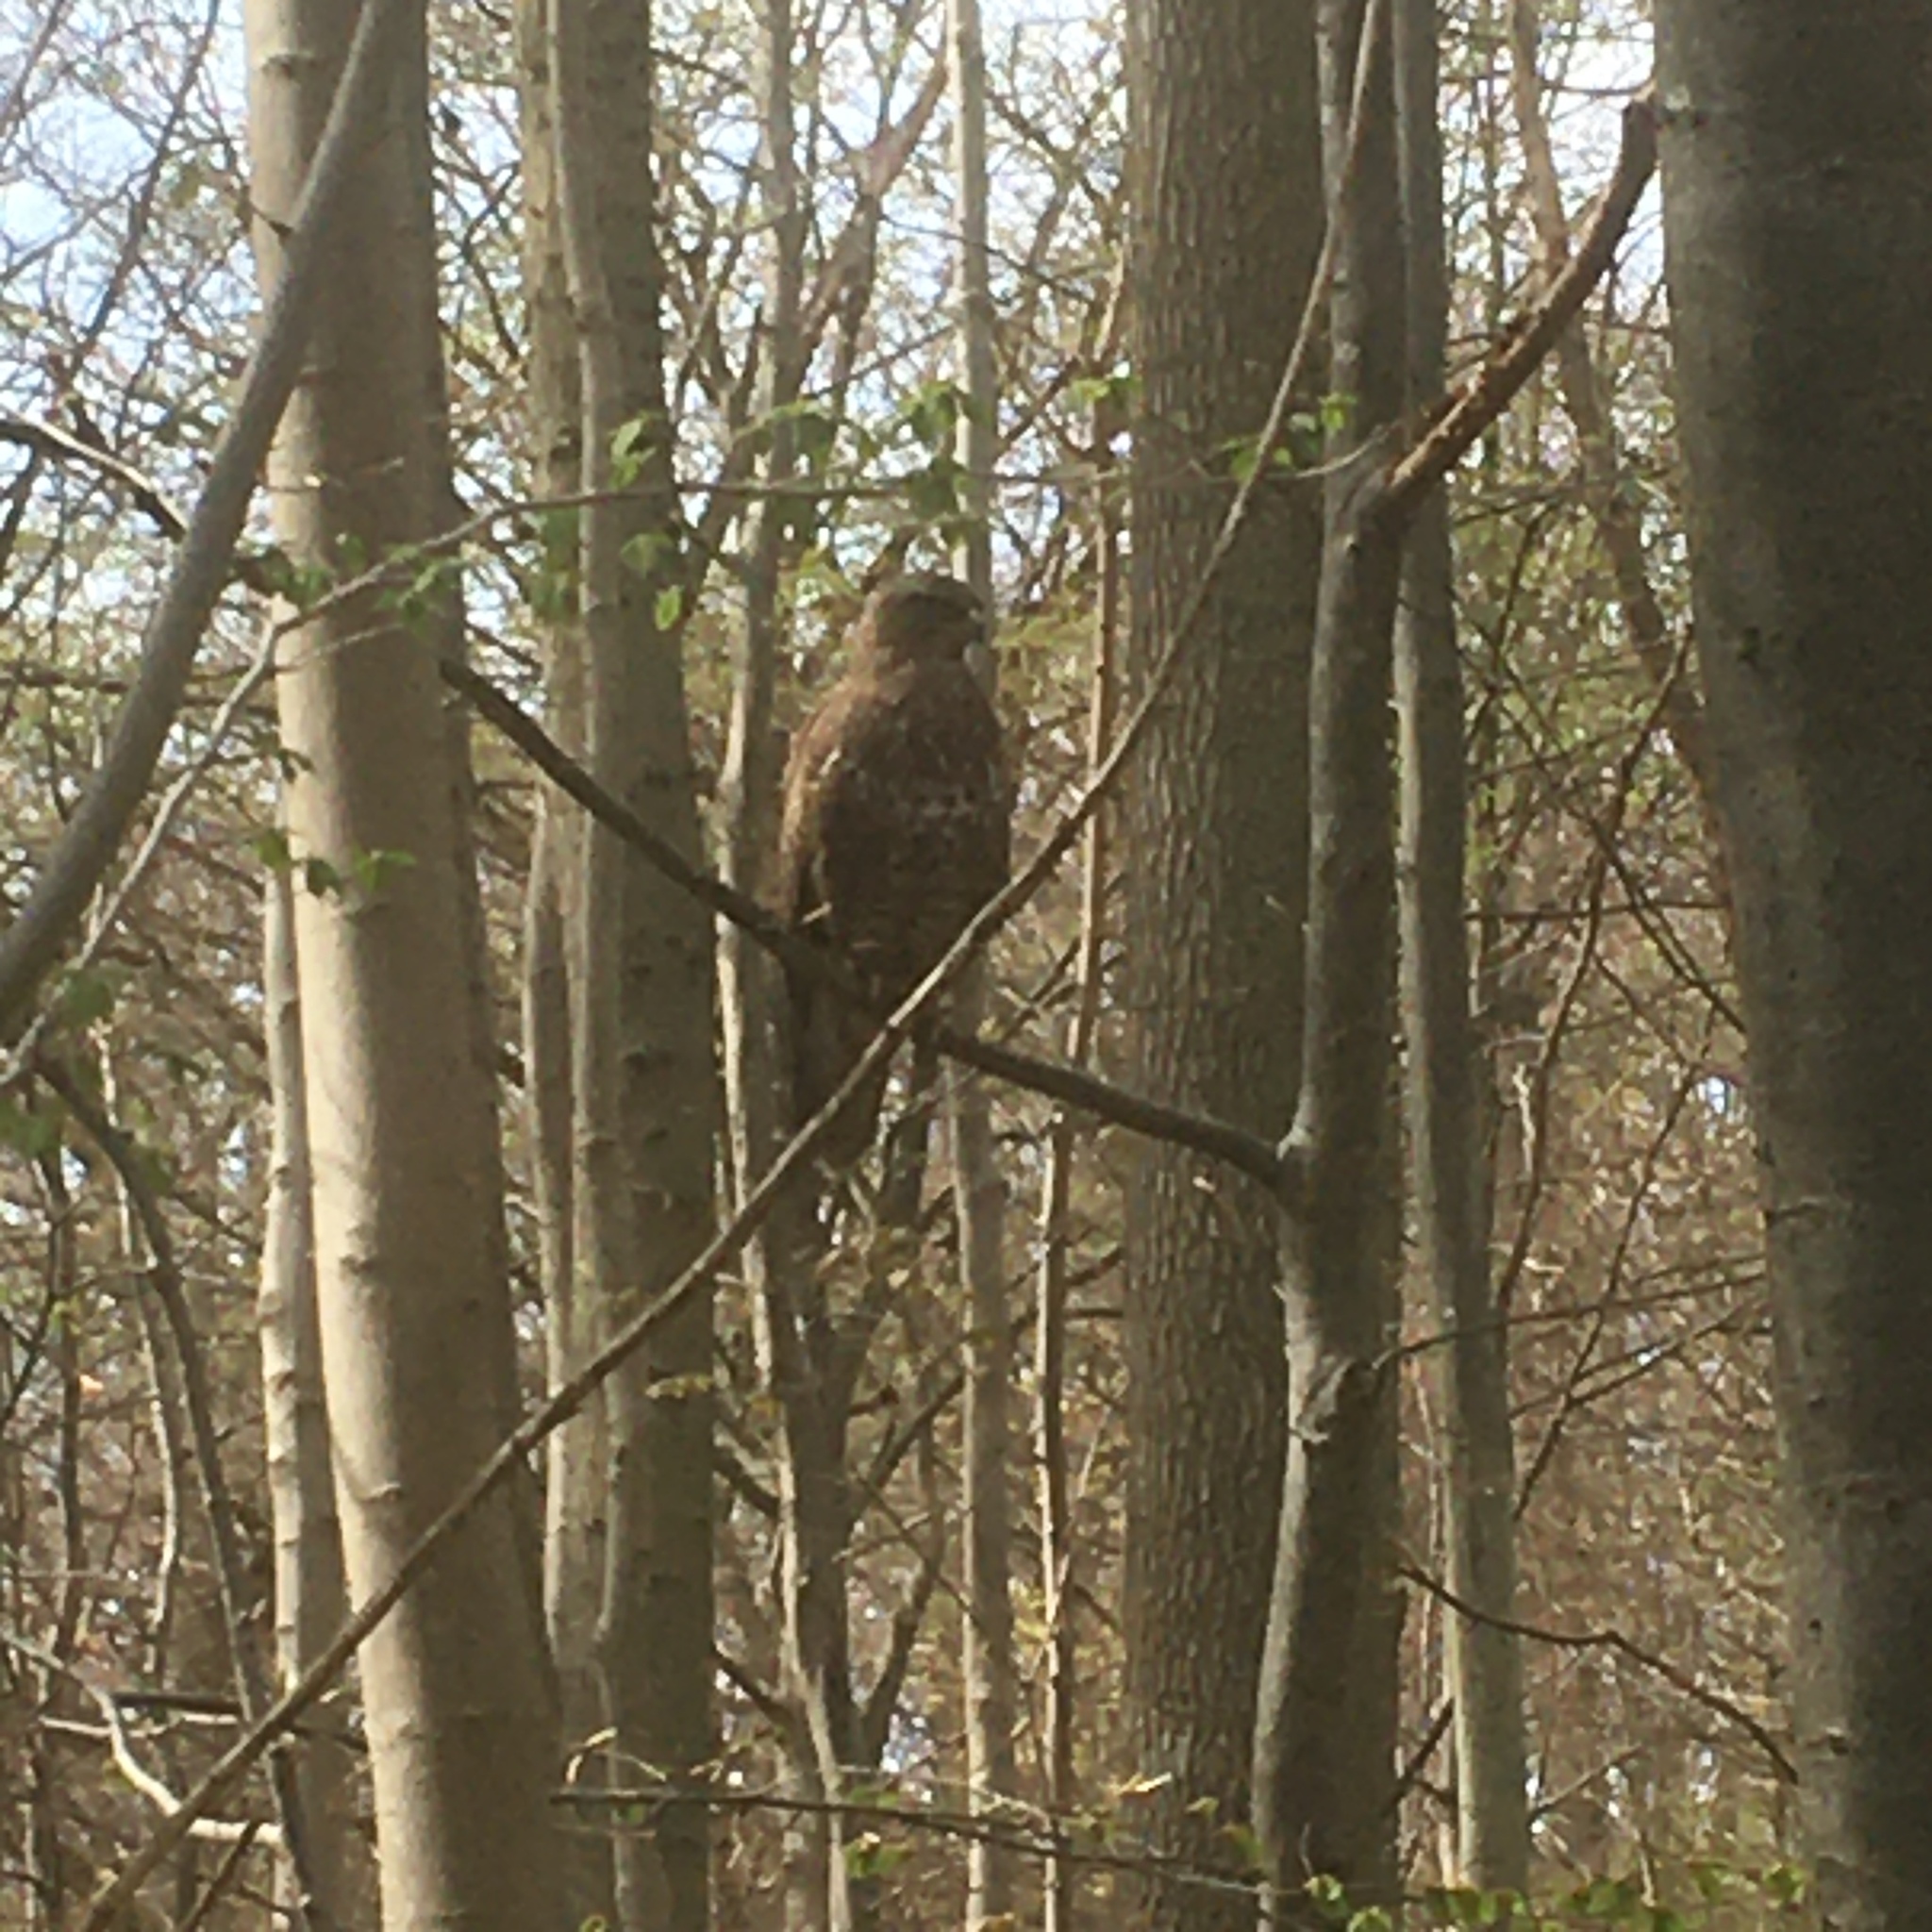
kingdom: Animalia
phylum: Chordata
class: Aves
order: Accipitriformes
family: Accipitridae
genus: Buteo
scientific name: Buteo buteo
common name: Common buzzard
